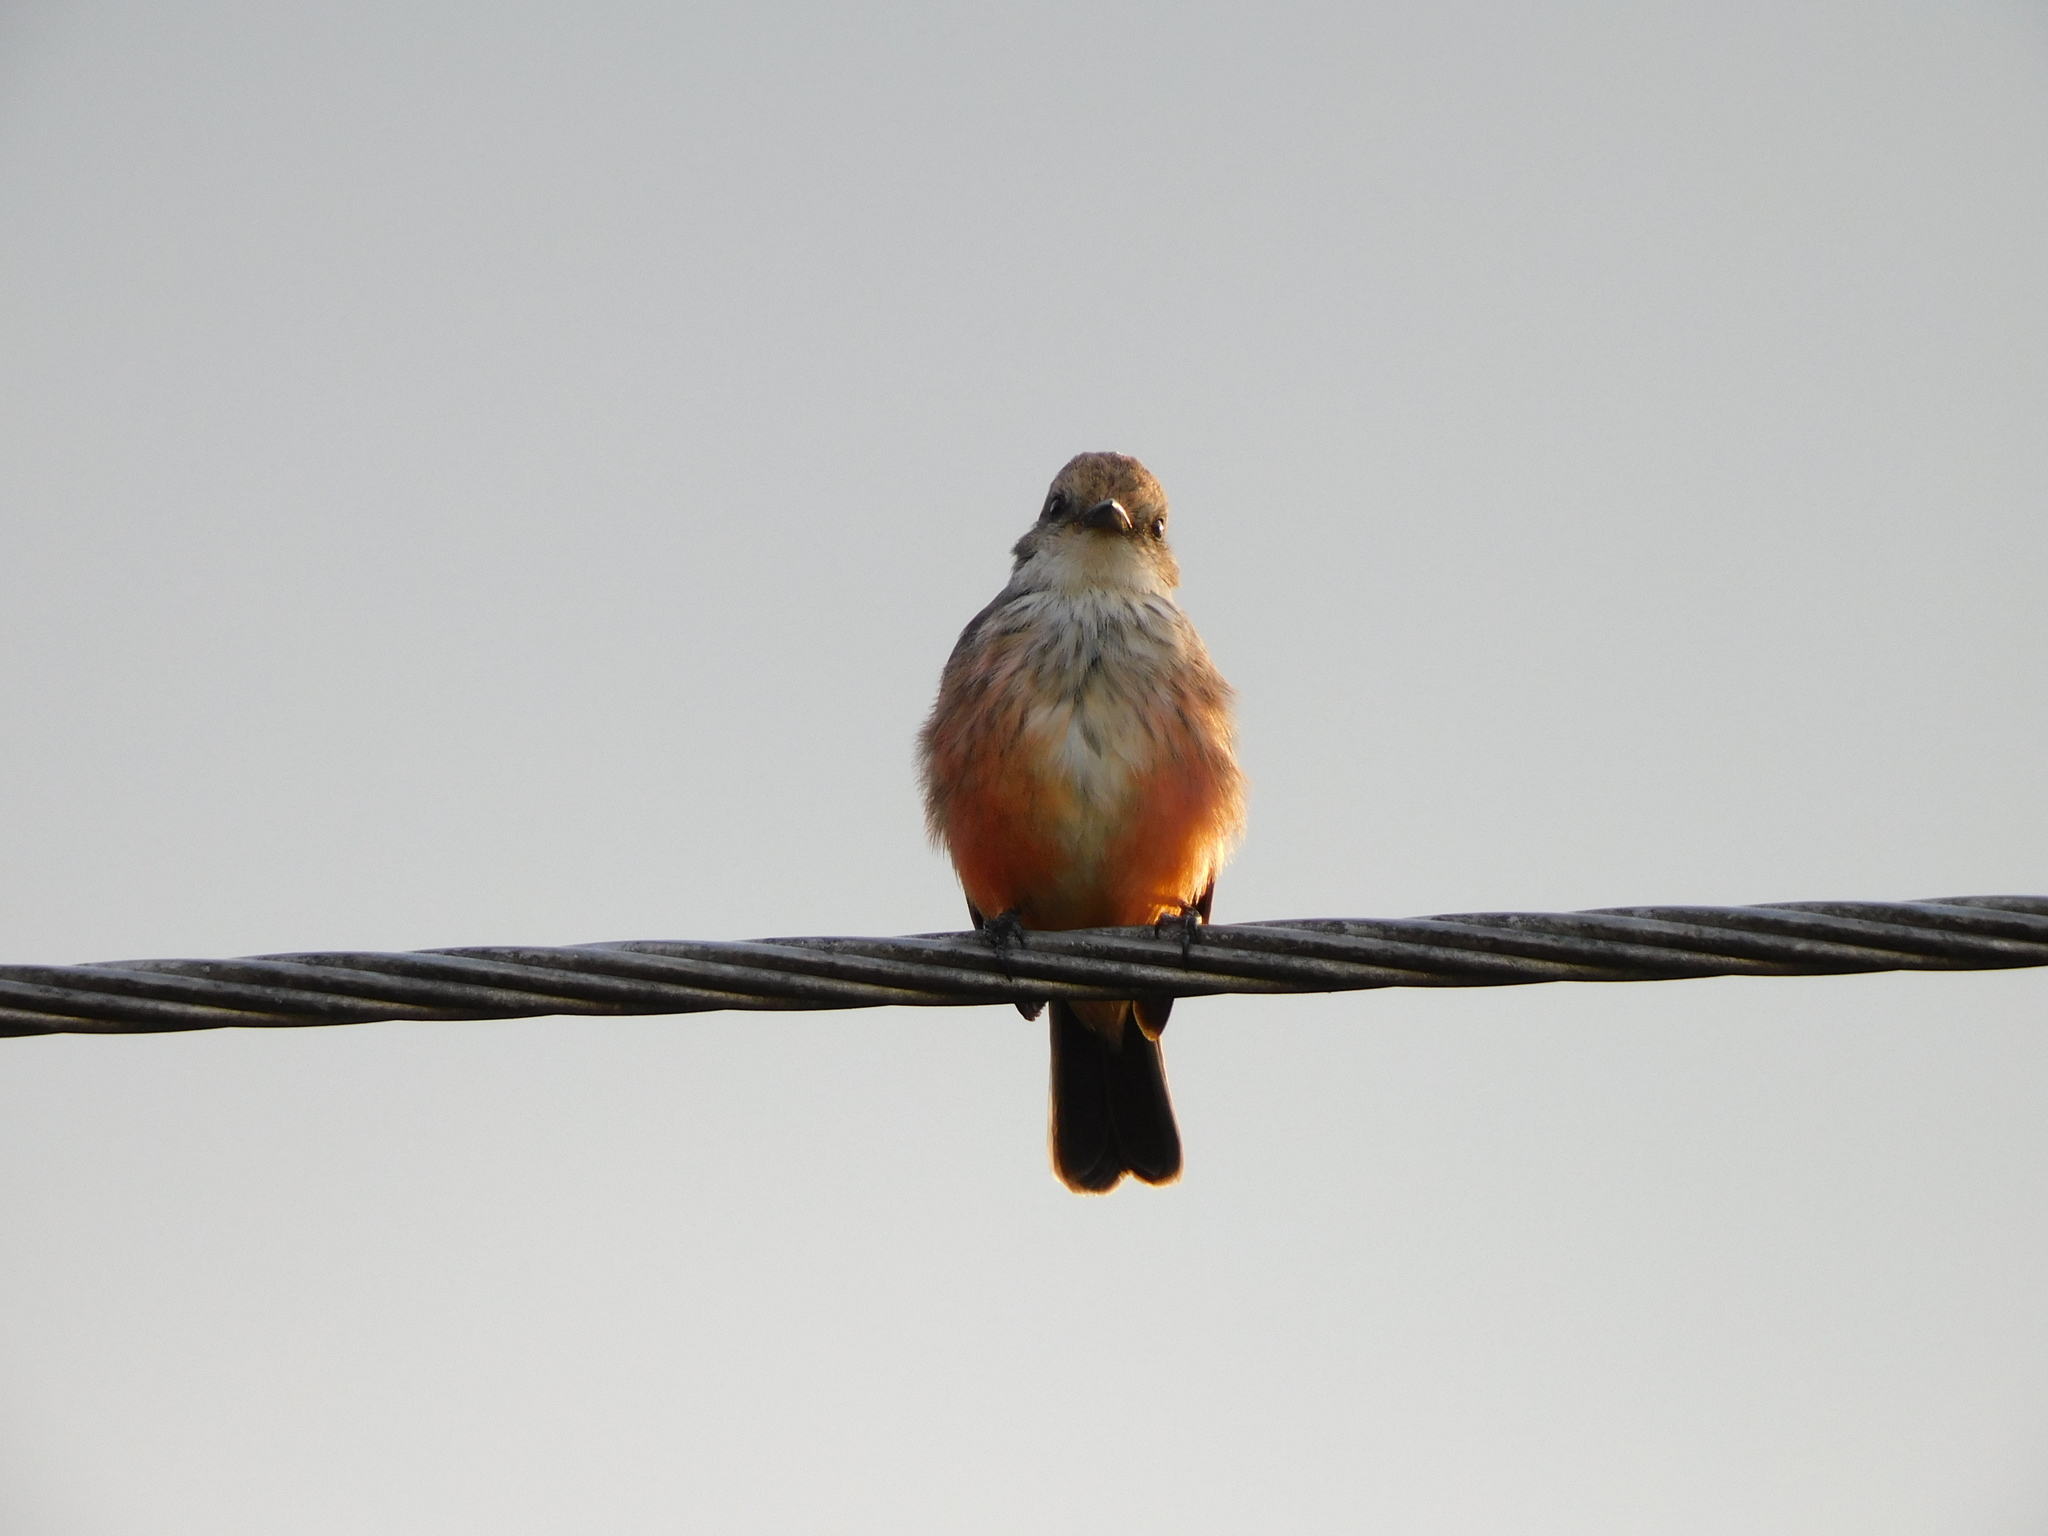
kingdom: Animalia
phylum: Chordata
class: Aves
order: Passeriformes
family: Tyrannidae
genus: Pyrocephalus
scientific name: Pyrocephalus rubinus
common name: Vermilion flycatcher
